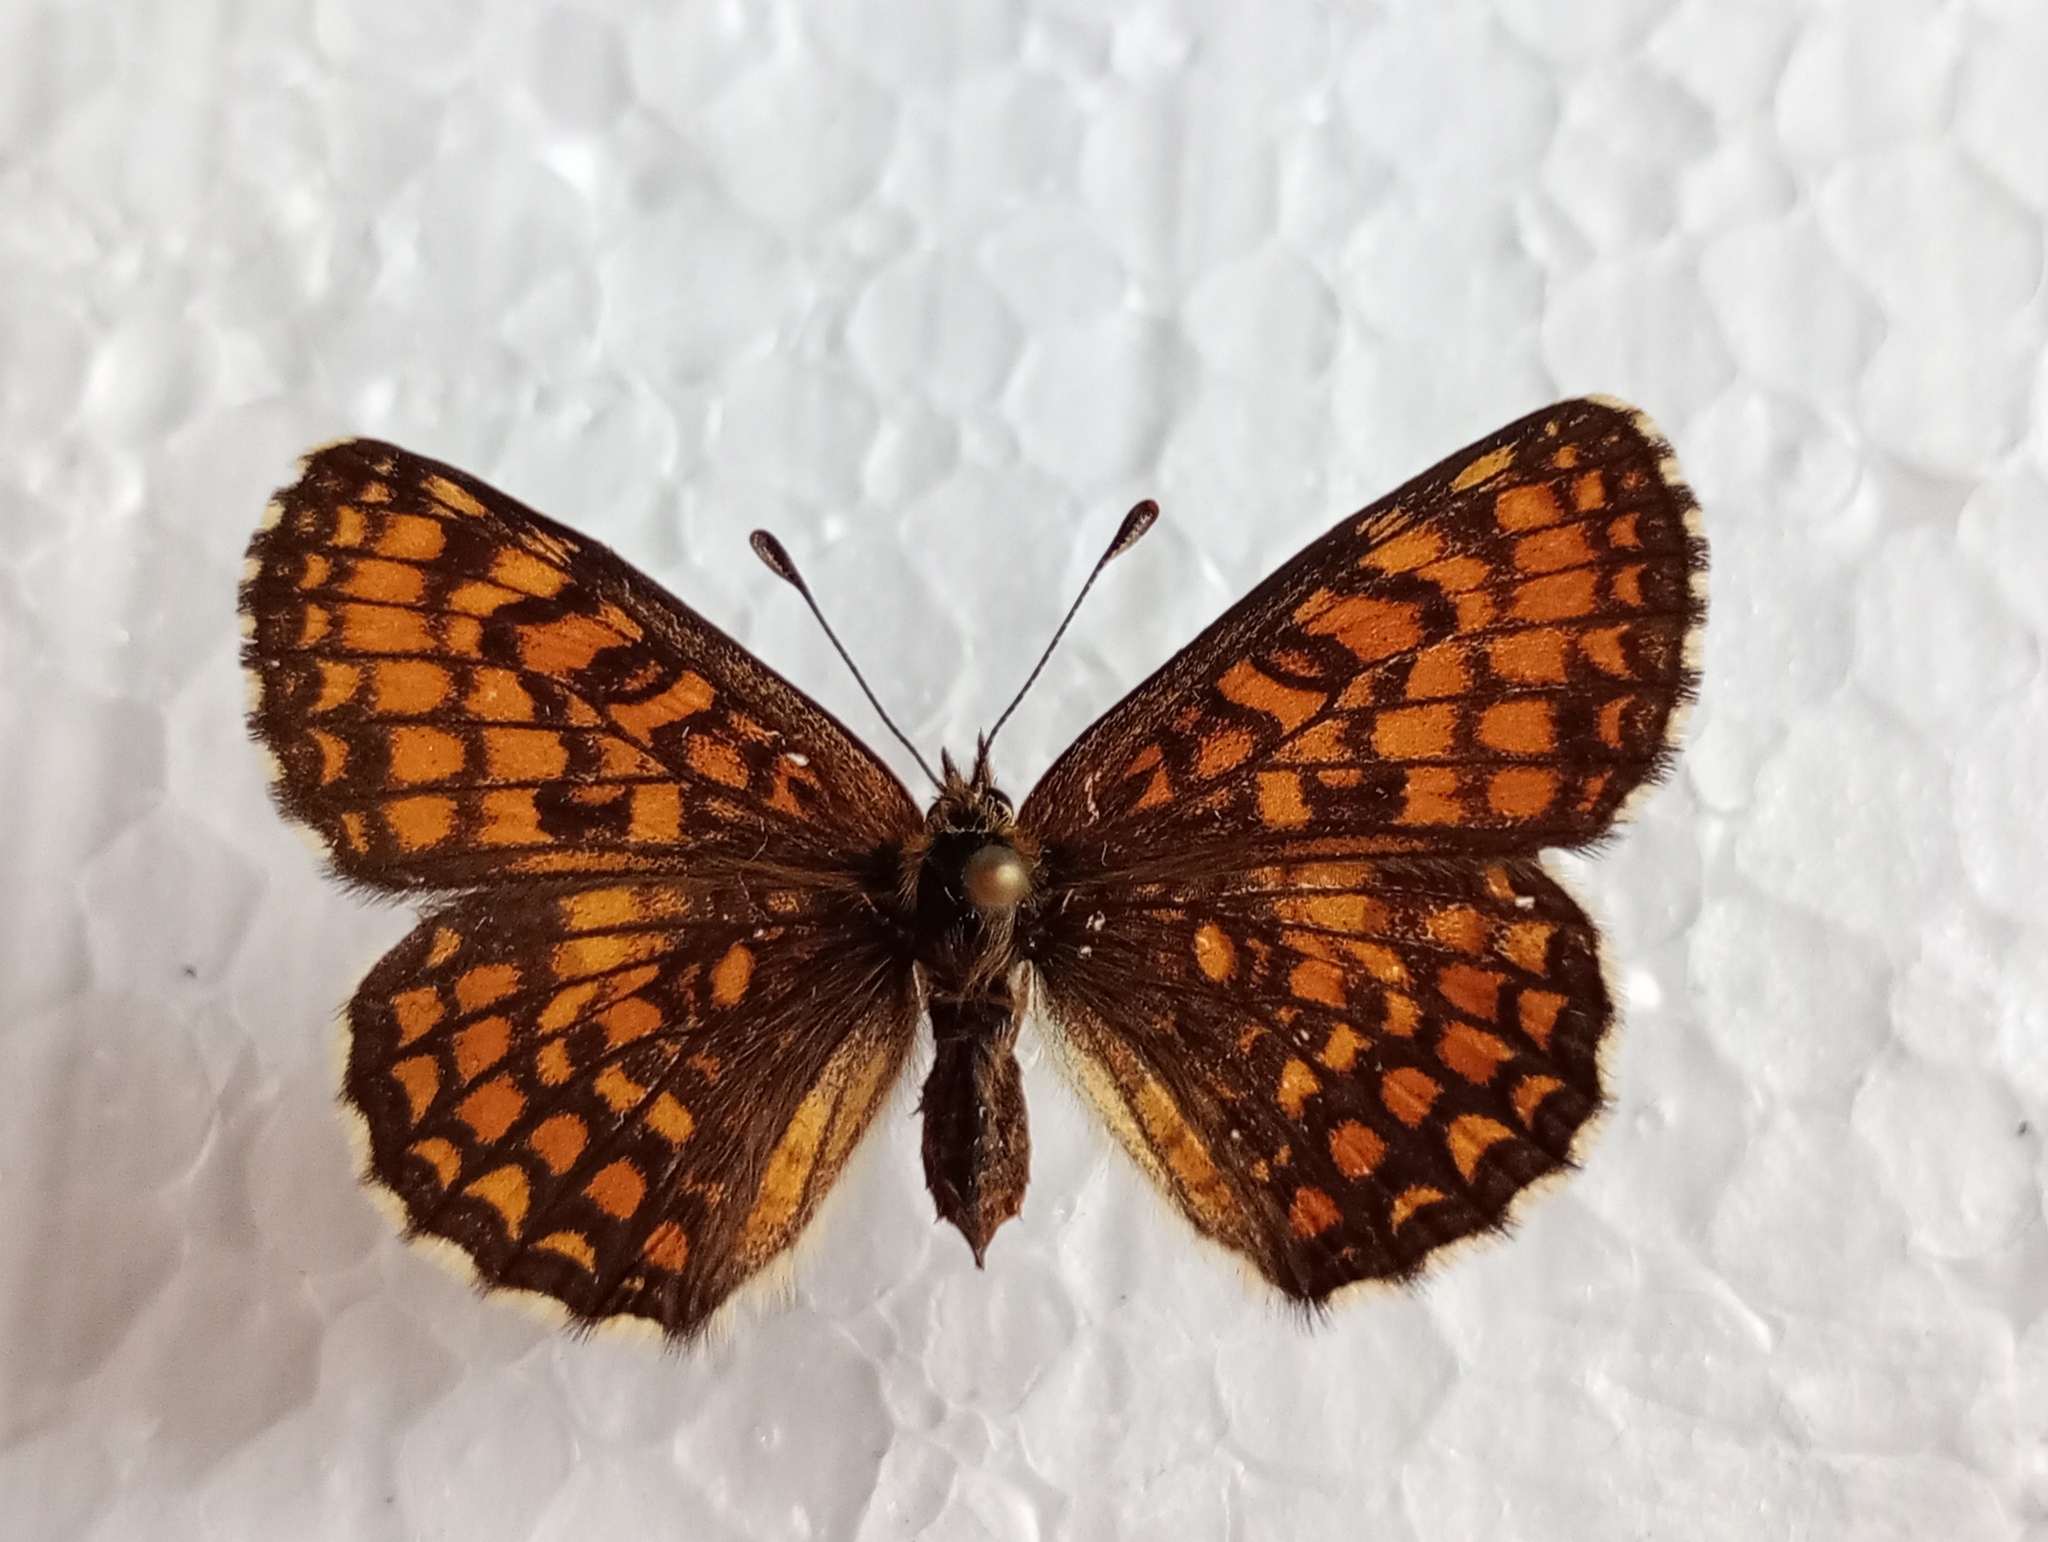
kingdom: Animalia
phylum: Arthropoda
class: Insecta
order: Lepidoptera
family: Nymphalidae
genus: Melitaea
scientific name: Melitaea athalia
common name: Heath fritillary
